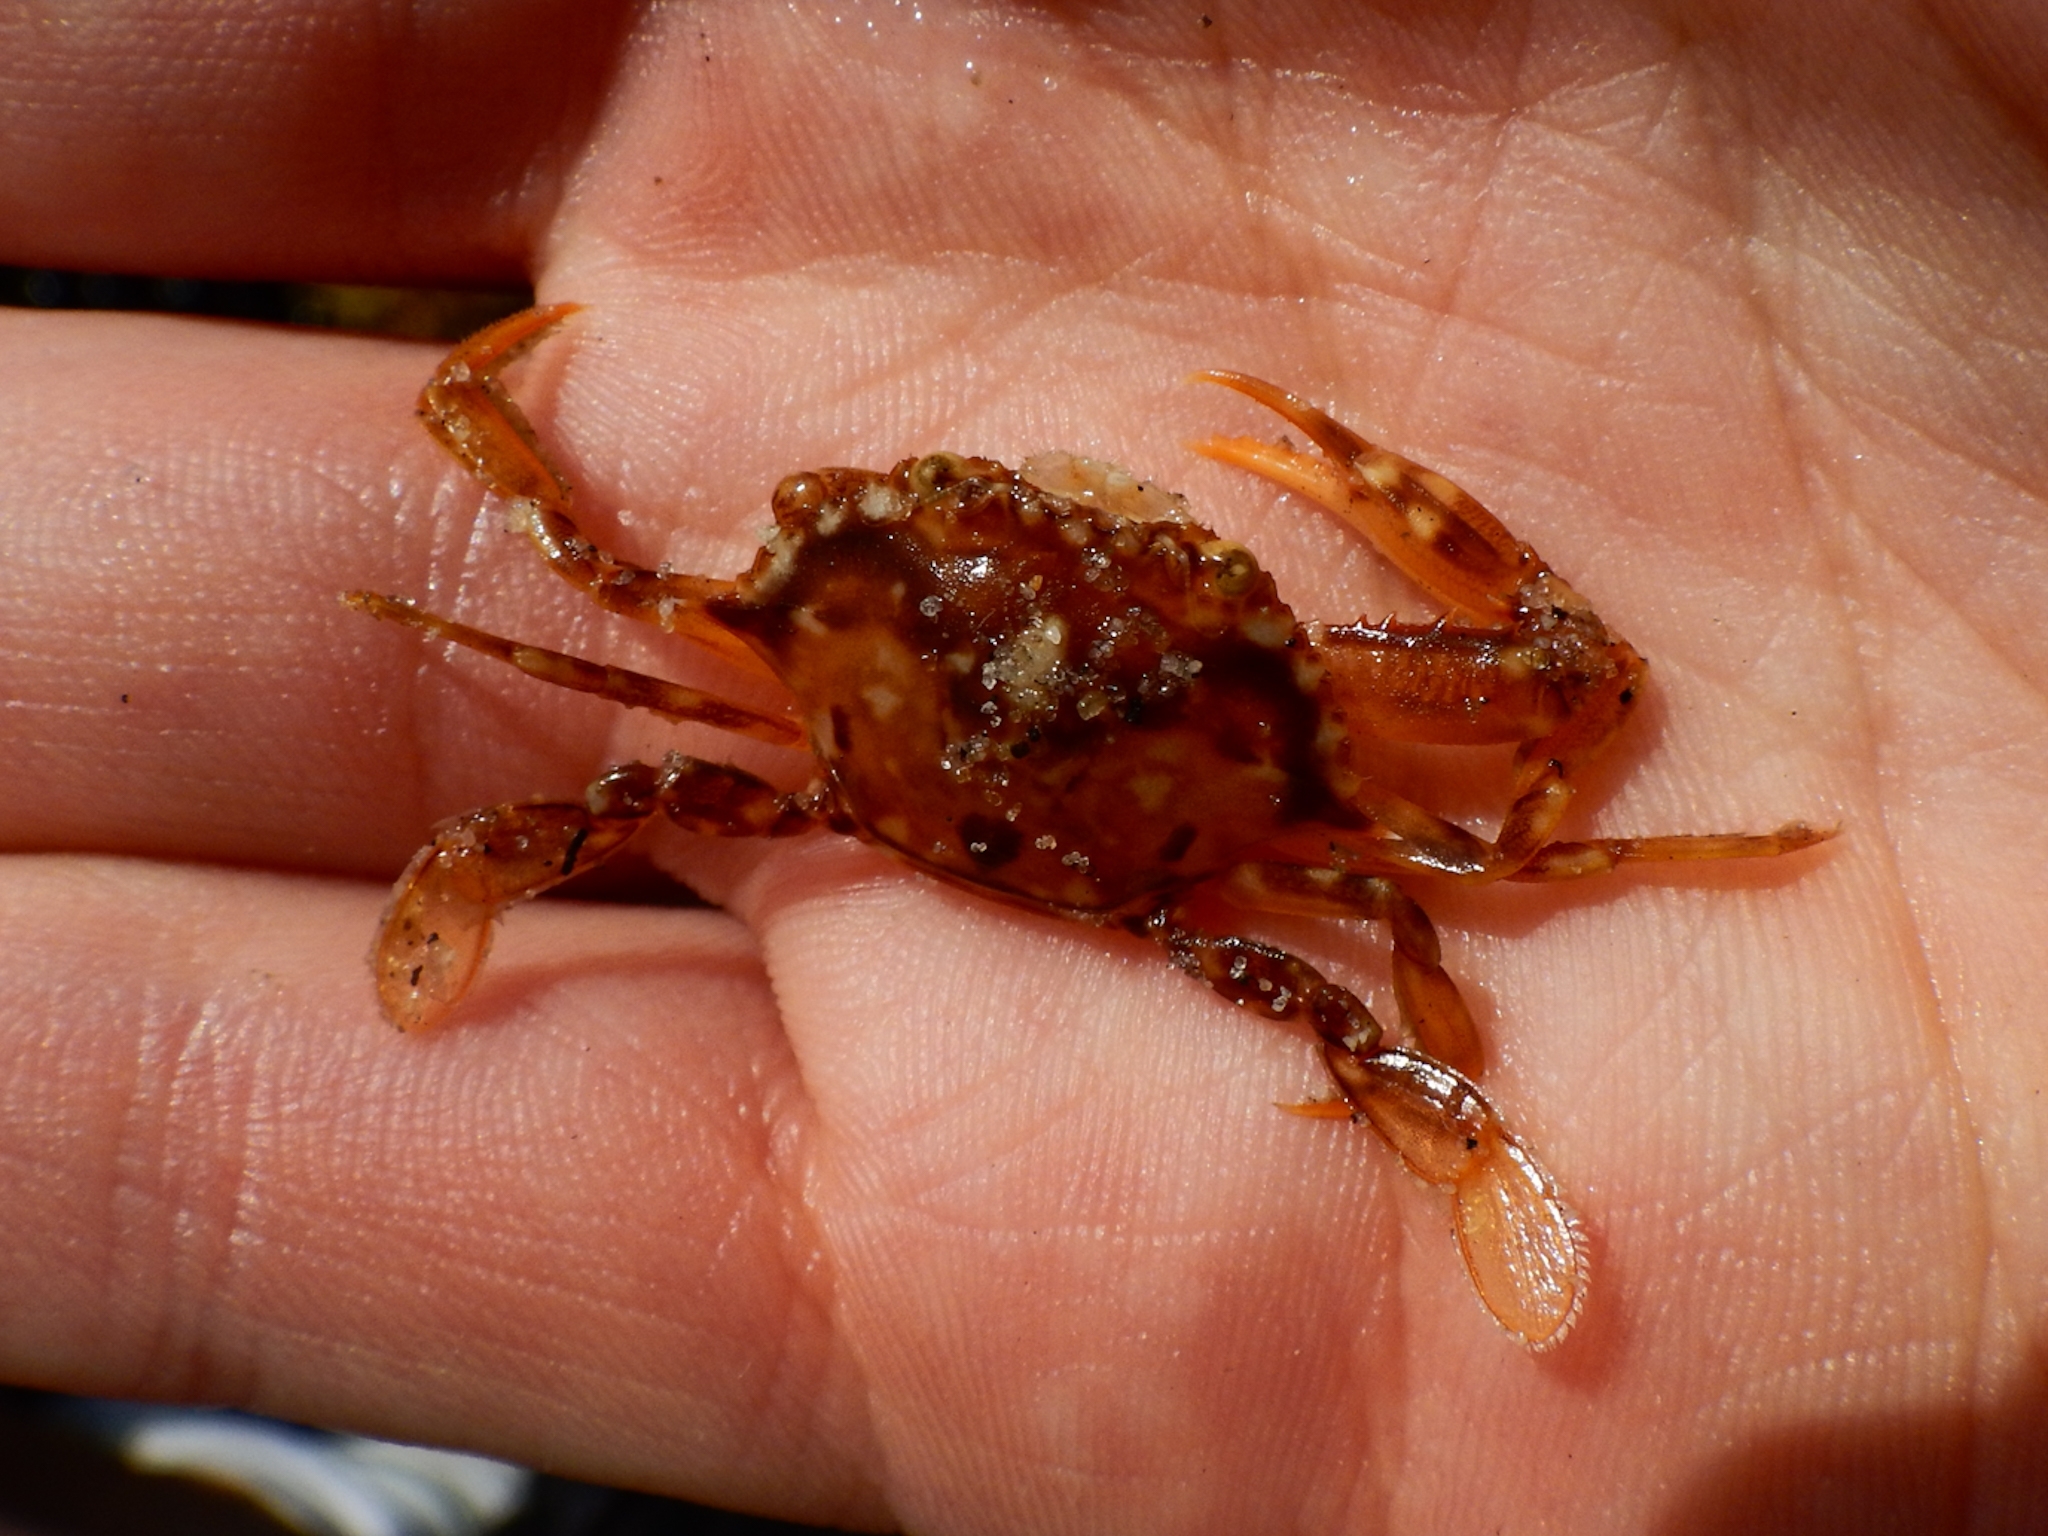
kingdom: Animalia
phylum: Arthropoda
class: Malacostraca
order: Decapoda
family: Portunidae
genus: Portunus
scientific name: Portunus sayi
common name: Sargassum crab
